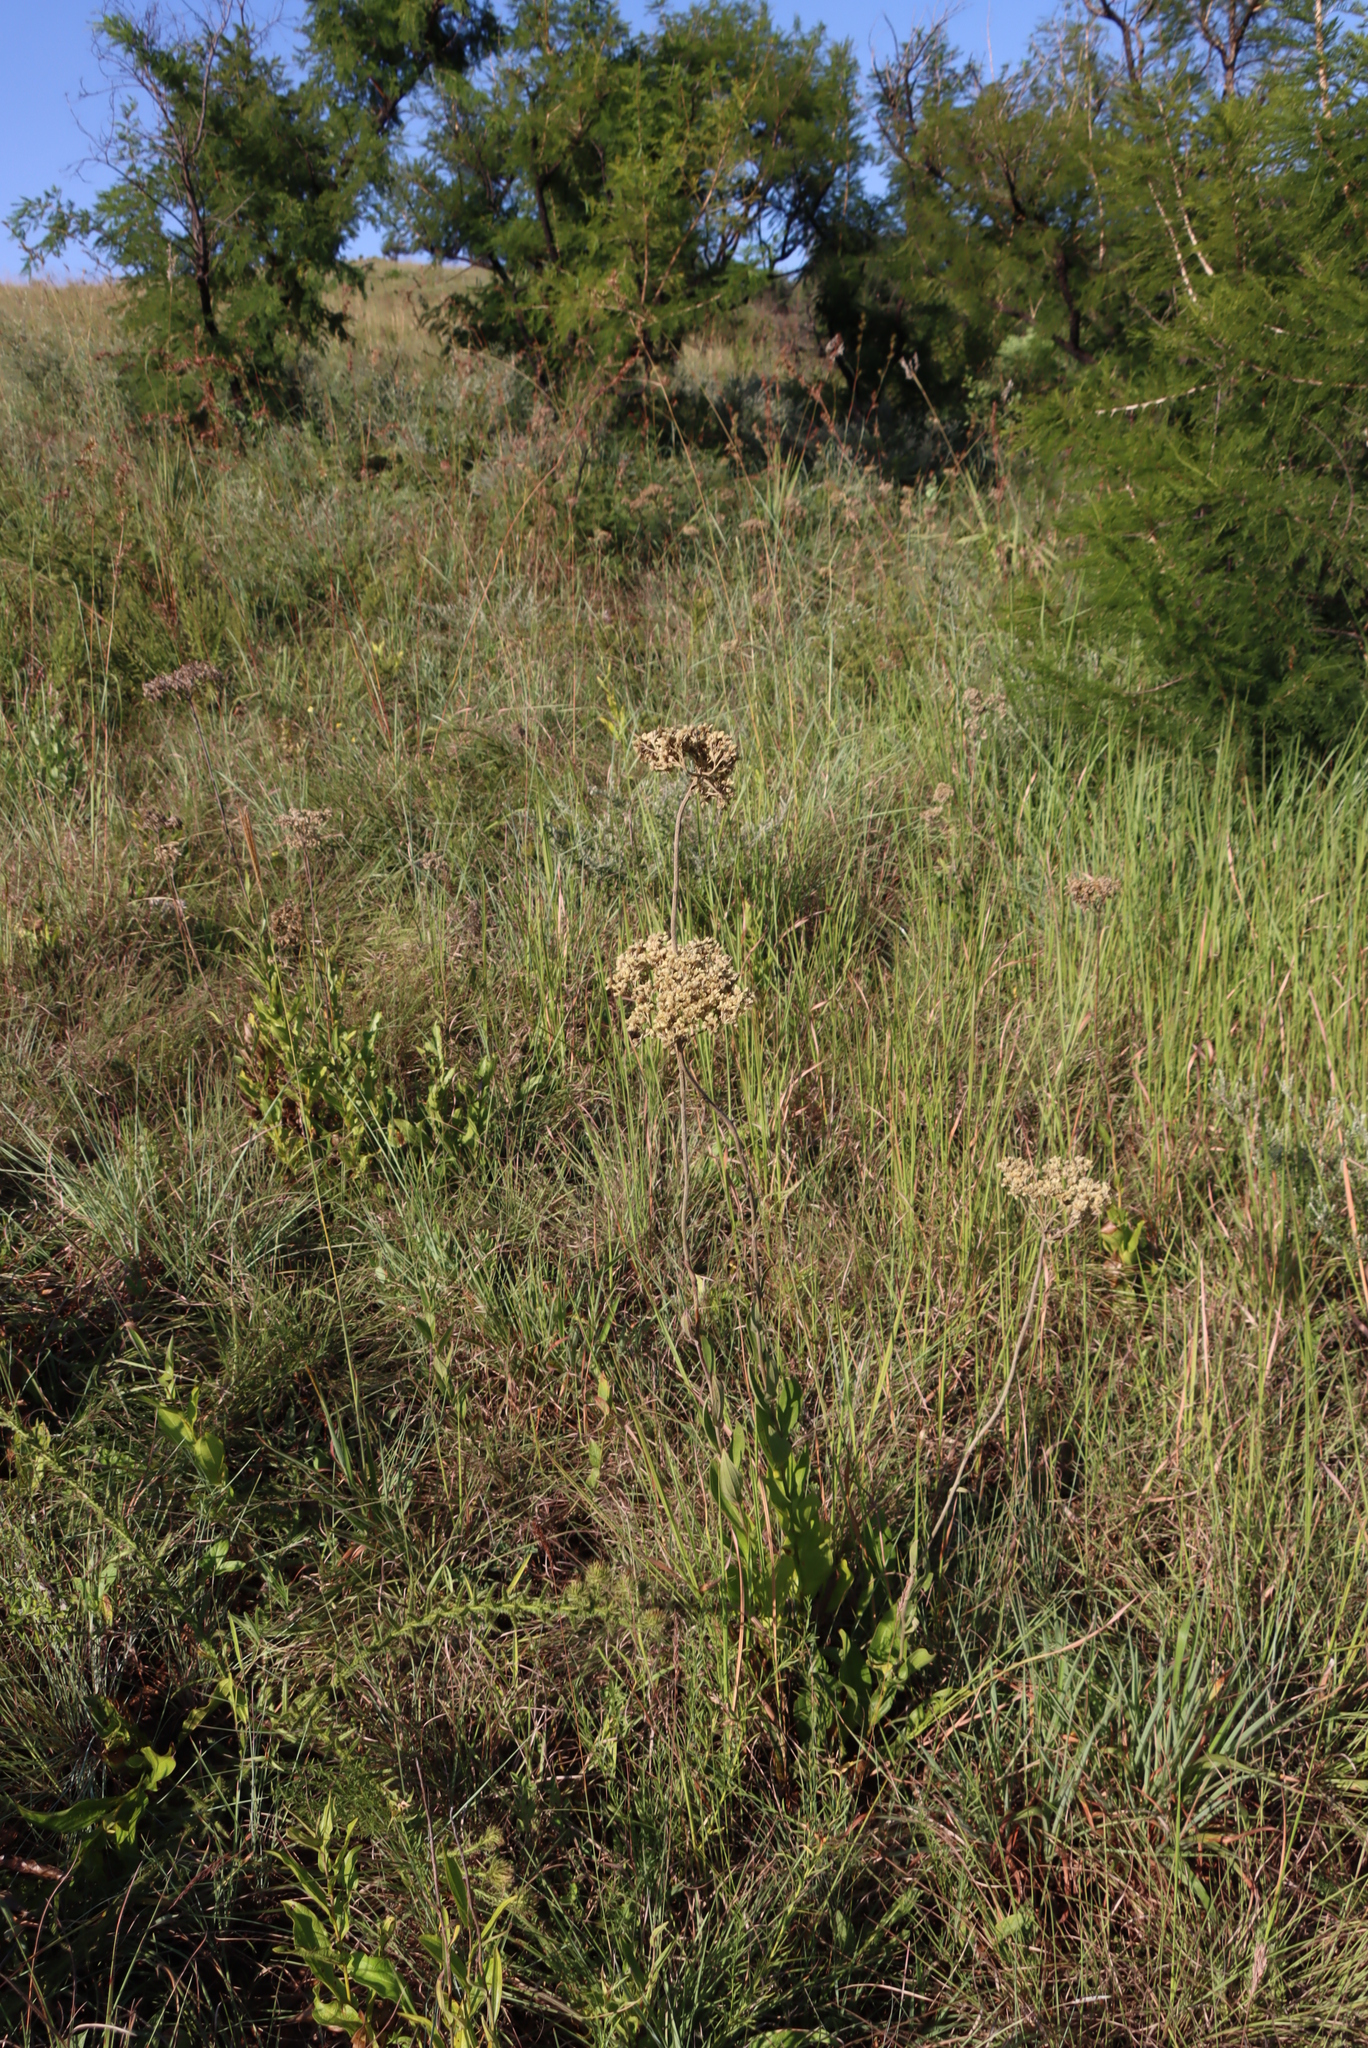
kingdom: Plantae
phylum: Tracheophyta
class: Magnoliopsida
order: Asterales
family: Asteraceae
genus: Helichrysum
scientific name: Helichrysum nudifolium
